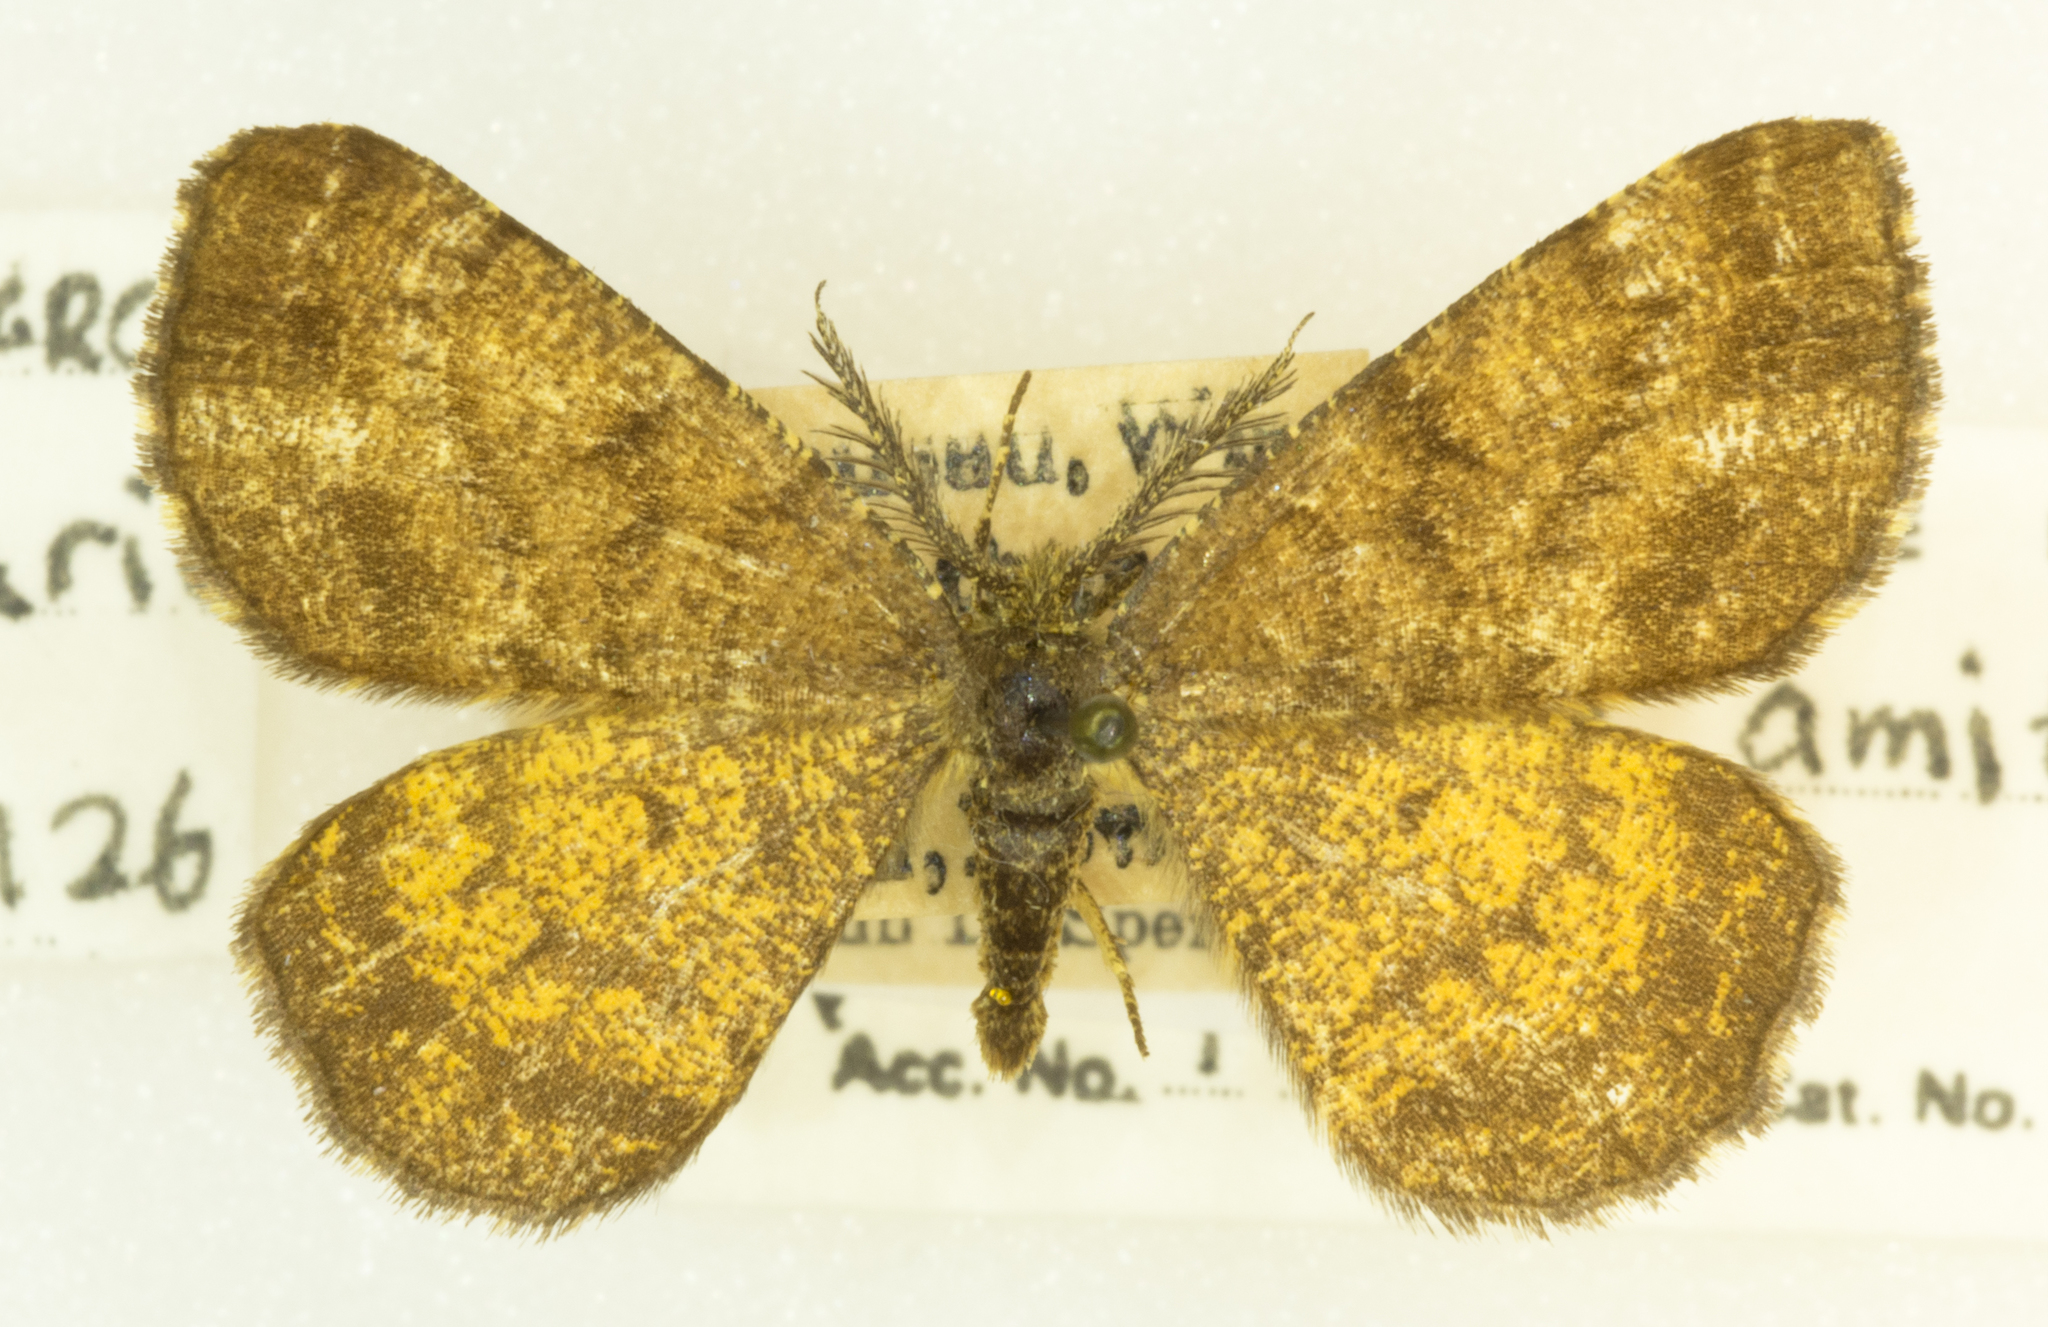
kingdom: Animalia
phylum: Arthropoda
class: Insecta
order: Lepidoptera
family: Geometridae
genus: Ematurga
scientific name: Ematurga amitaria
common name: Cranberry spanworm moth
